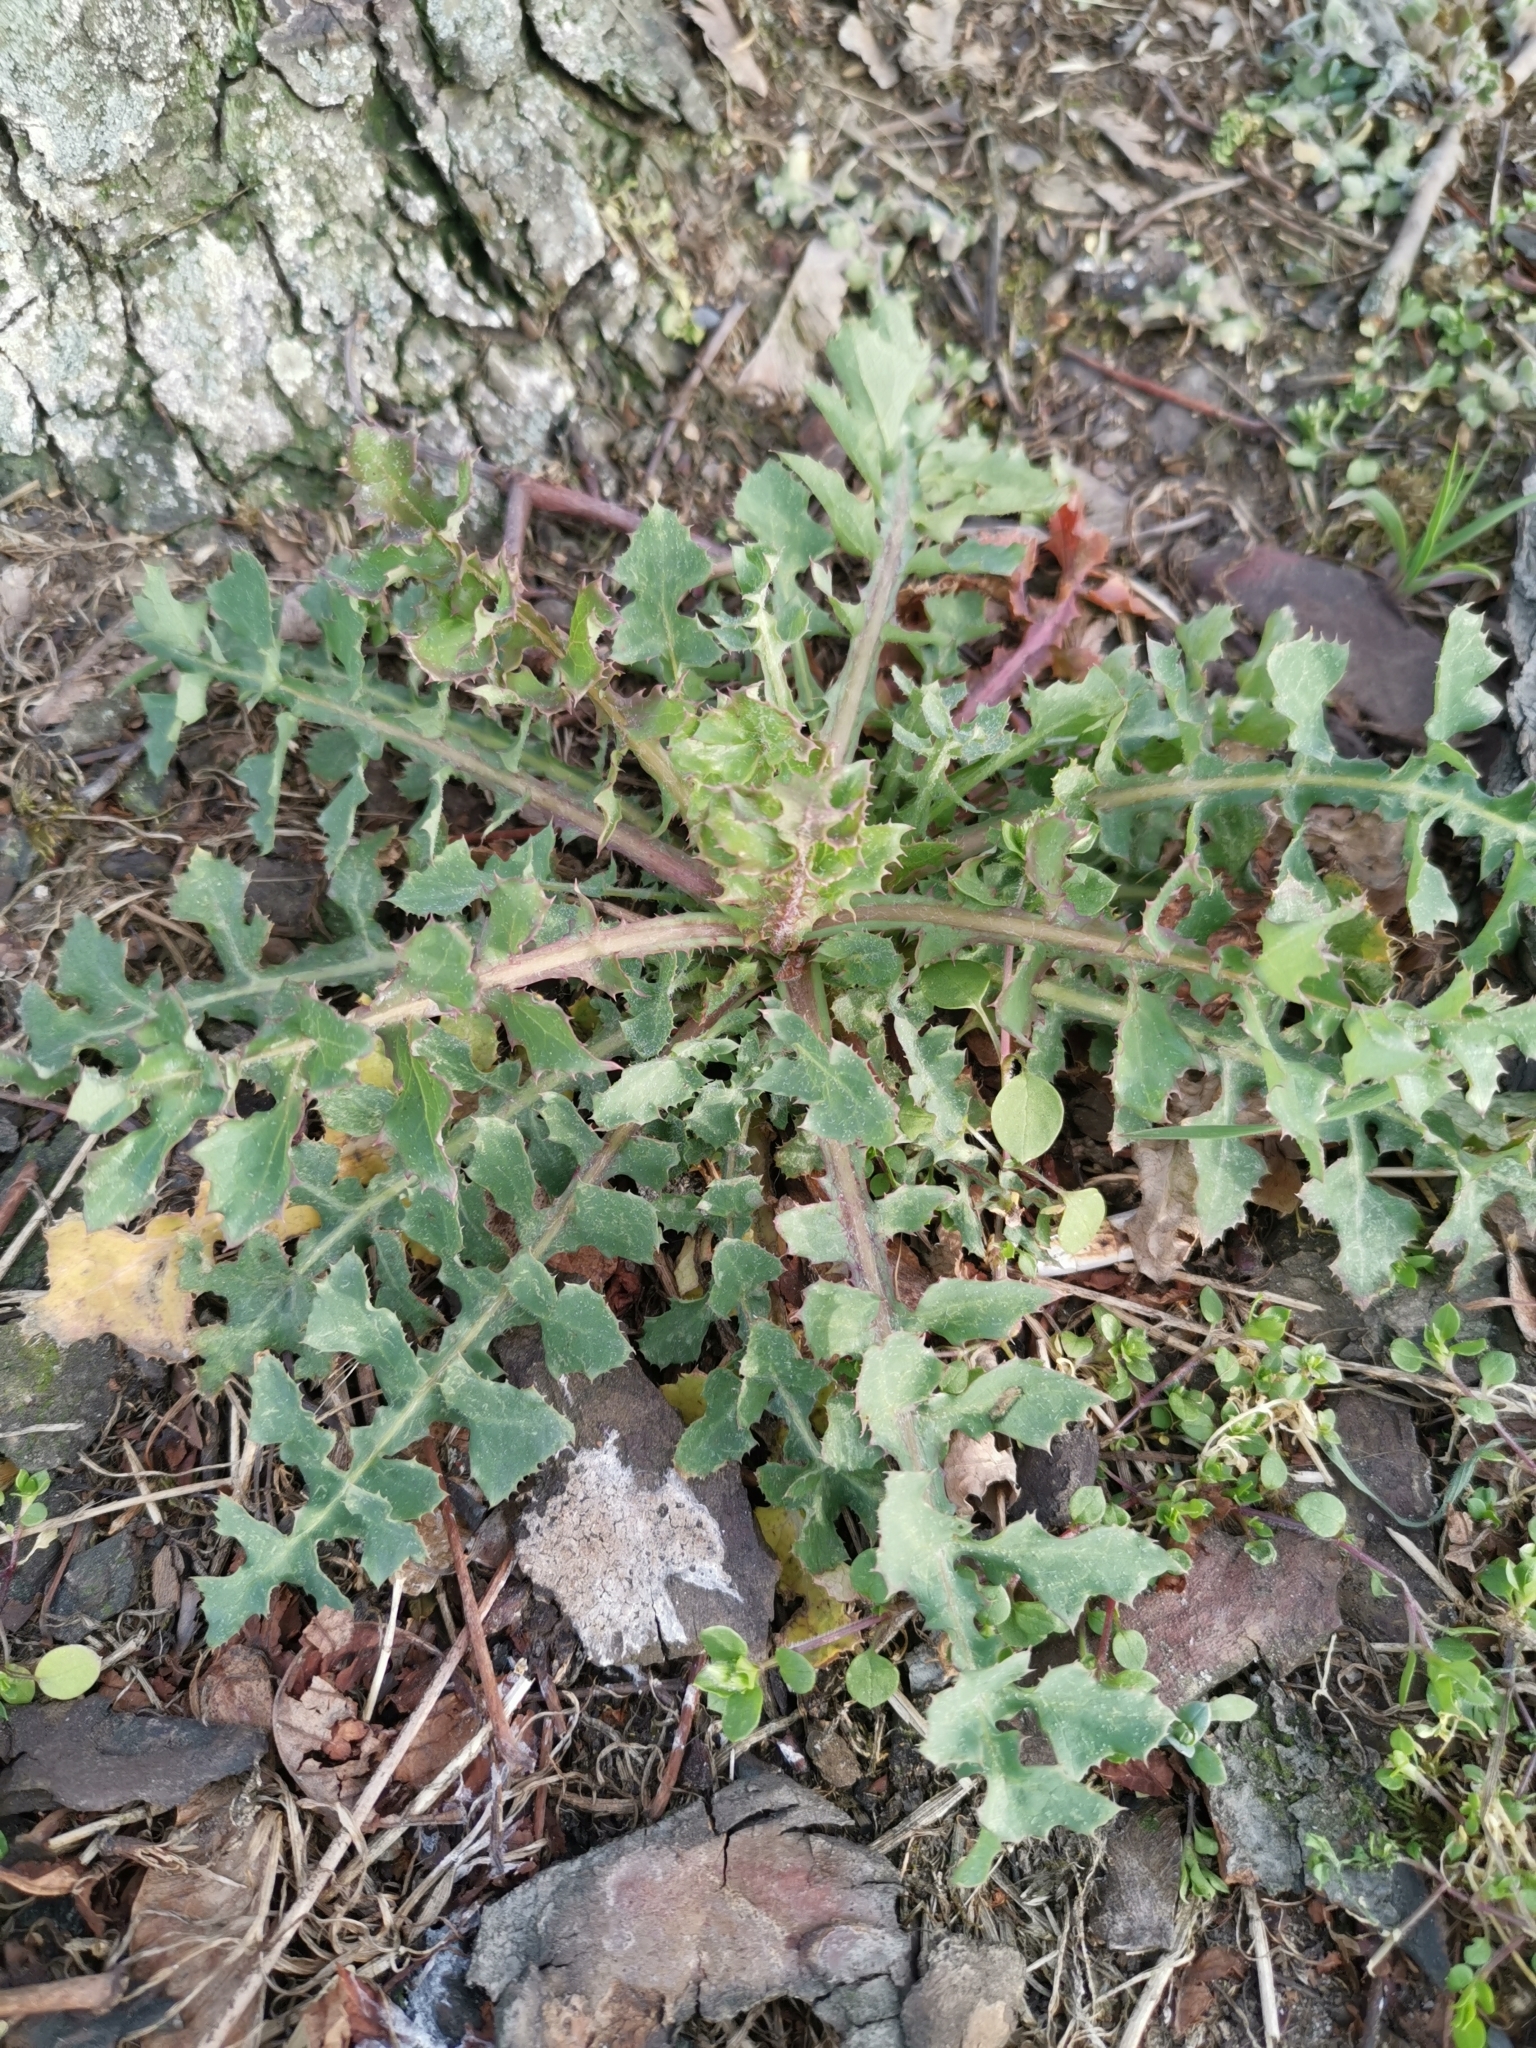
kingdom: Plantae
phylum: Tracheophyta
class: Magnoliopsida
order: Asterales
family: Asteraceae
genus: Sonchus
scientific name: Sonchus oleraceus
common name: Common sowthistle
